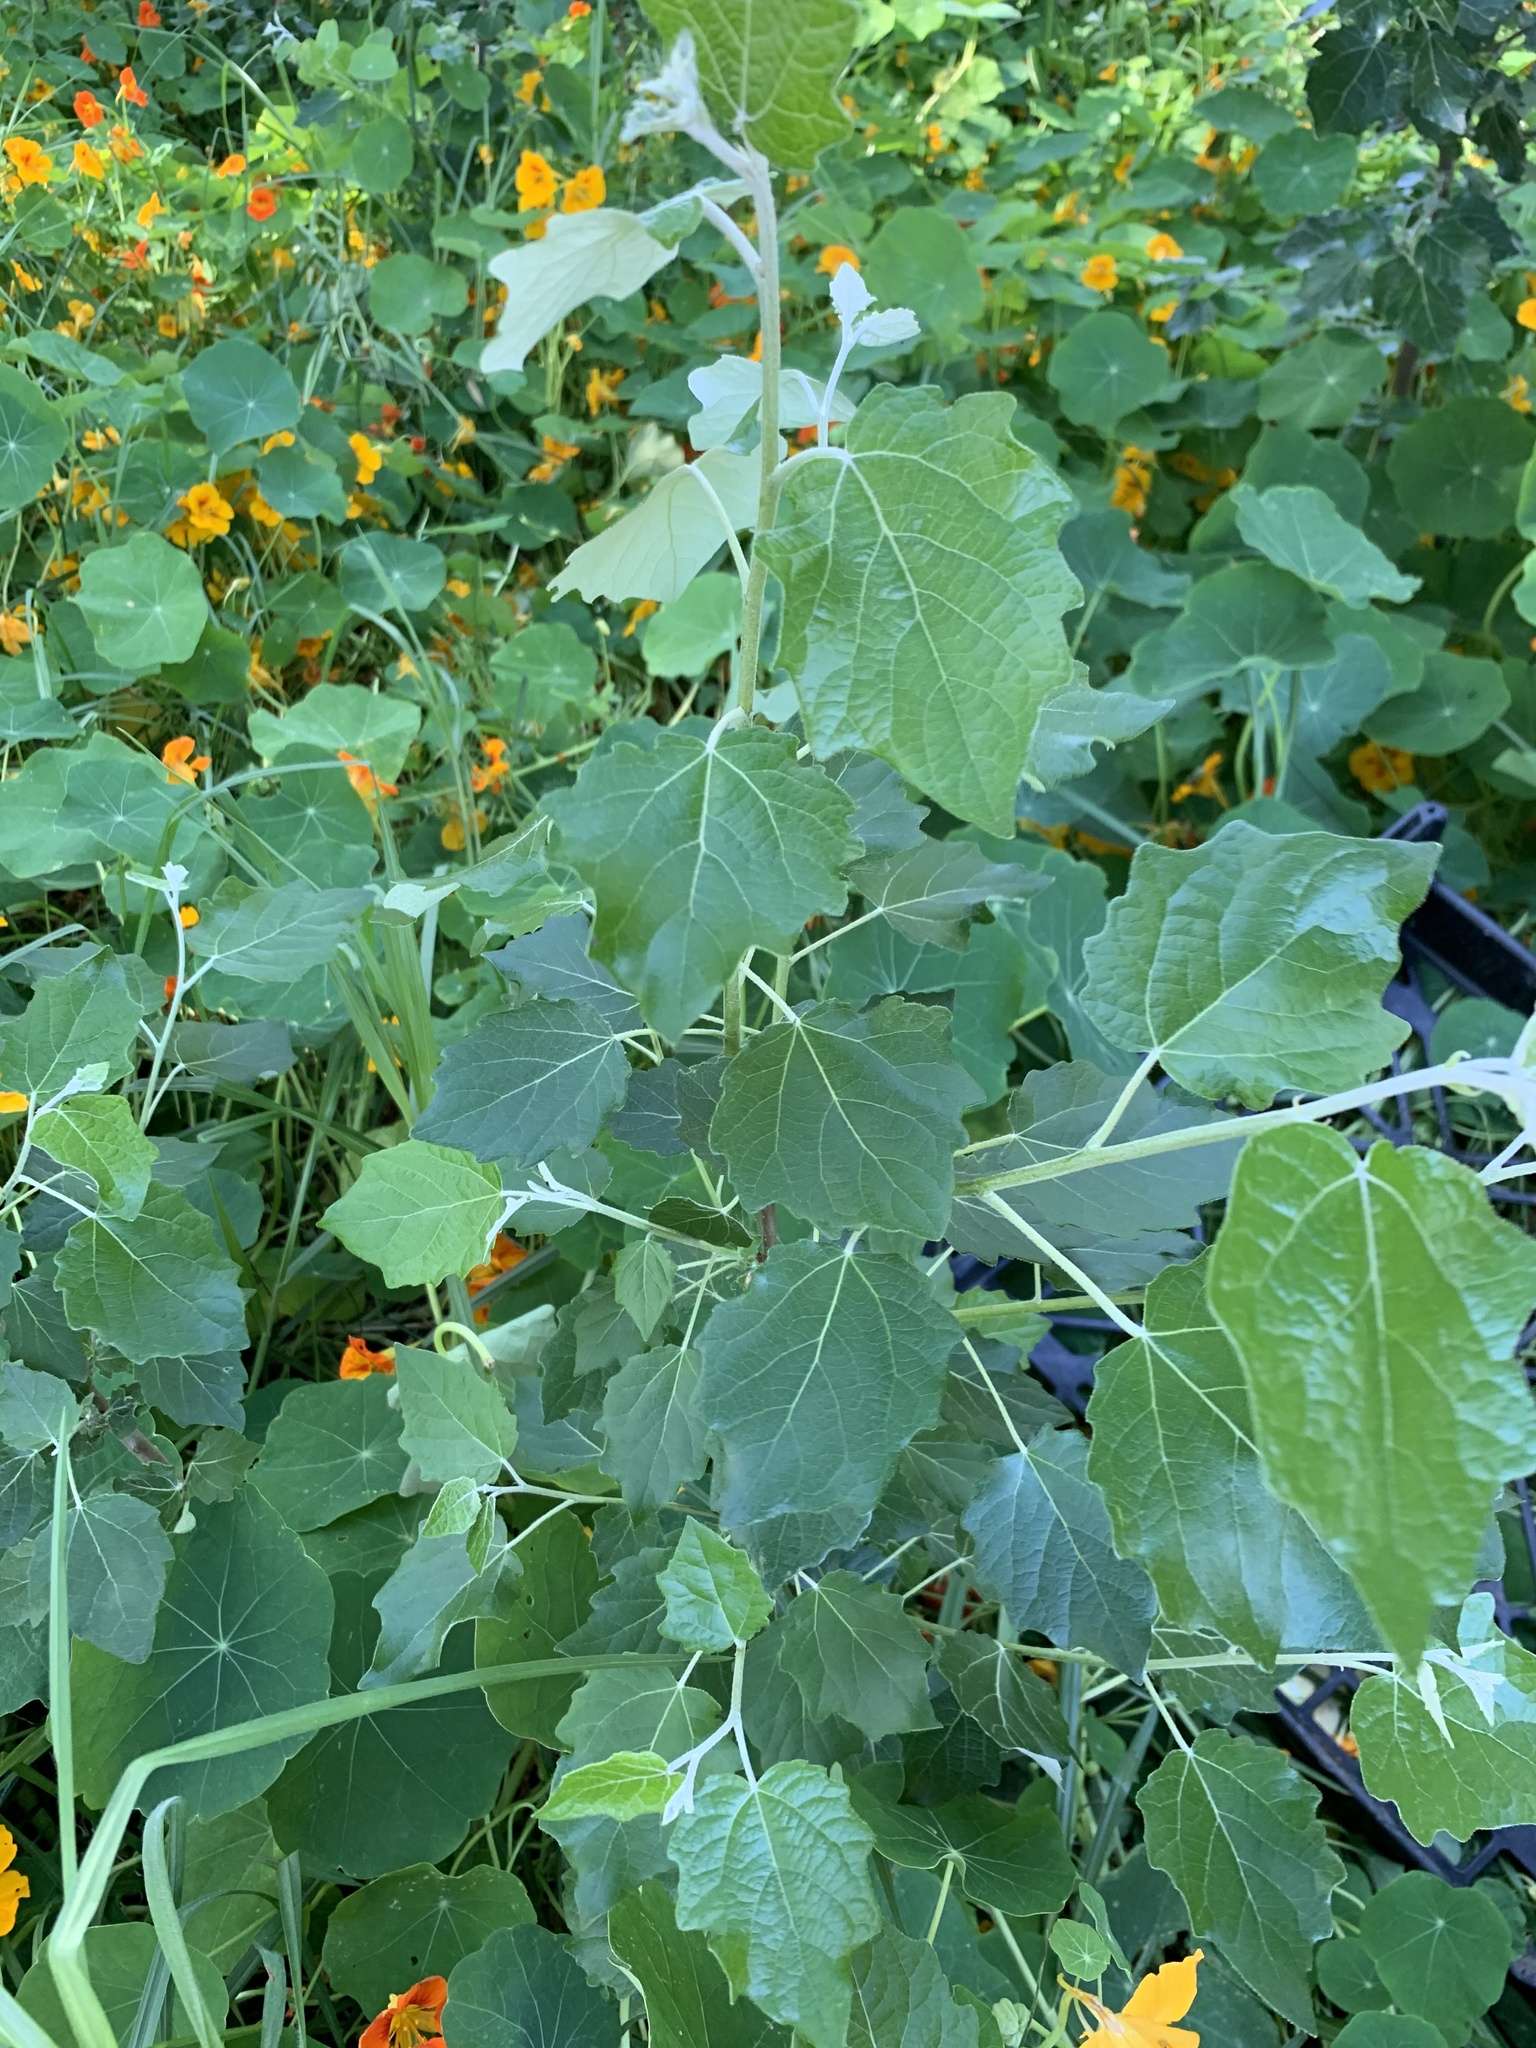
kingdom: Plantae
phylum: Tracheophyta
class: Magnoliopsida
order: Malpighiales
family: Salicaceae
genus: Populus
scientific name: Populus canescens
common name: Gray poplar
